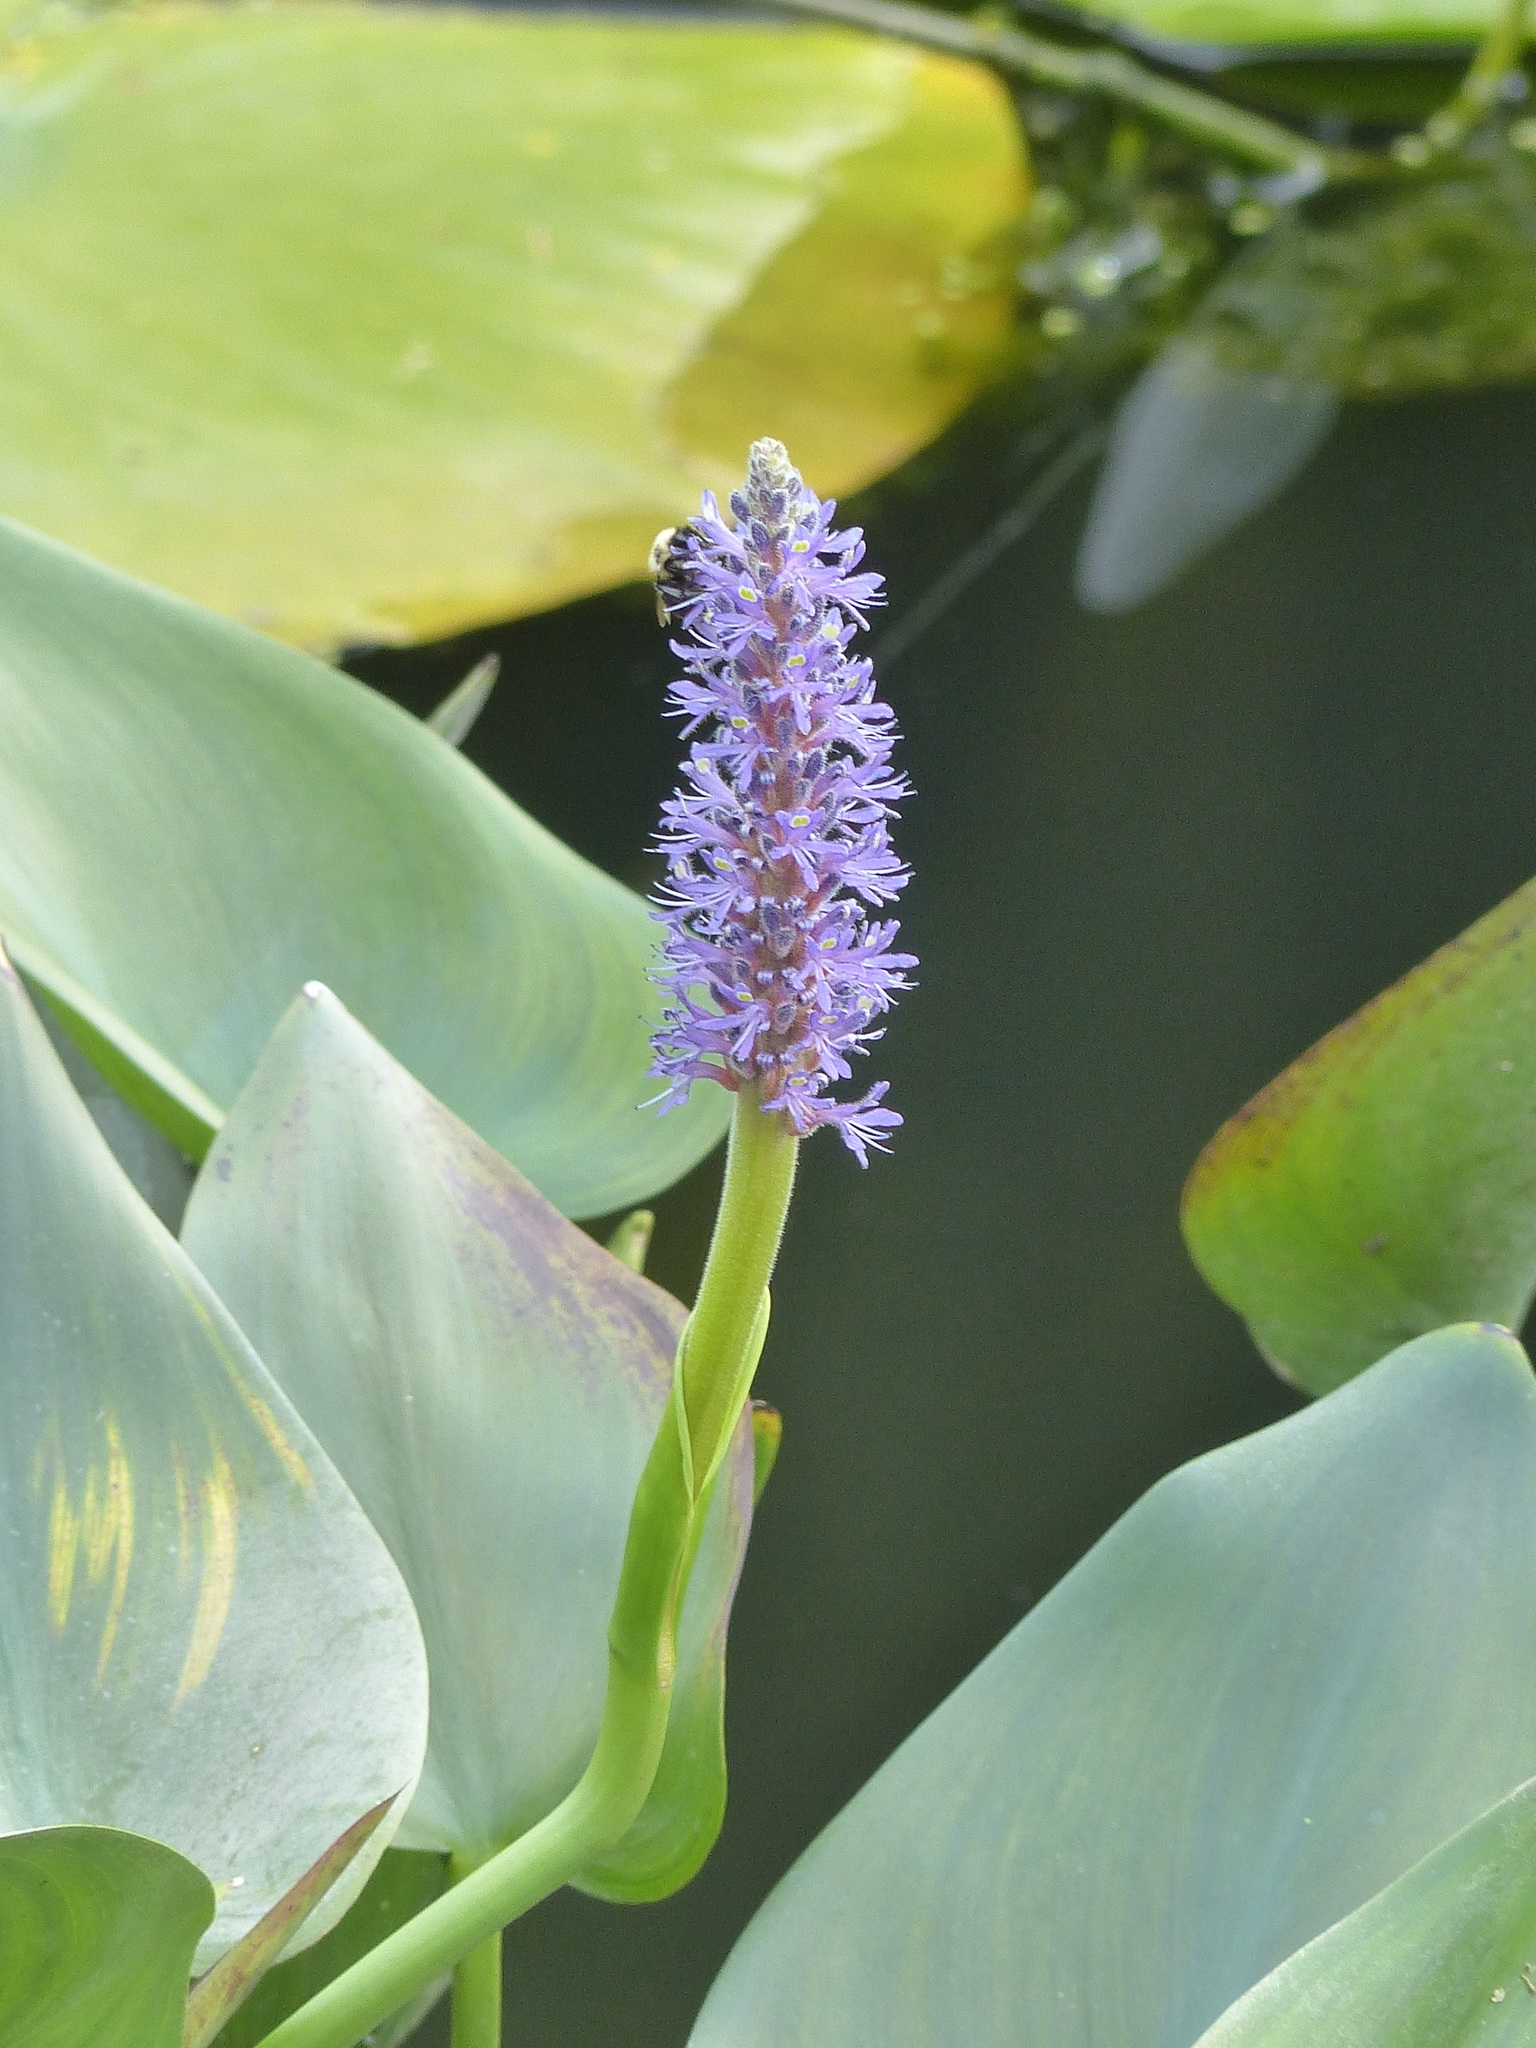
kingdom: Plantae
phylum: Tracheophyta
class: Liliopsida
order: Commelinales
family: Pontederiaceae
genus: Pontederia
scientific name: Pontederia cordata
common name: Pickerelweed
